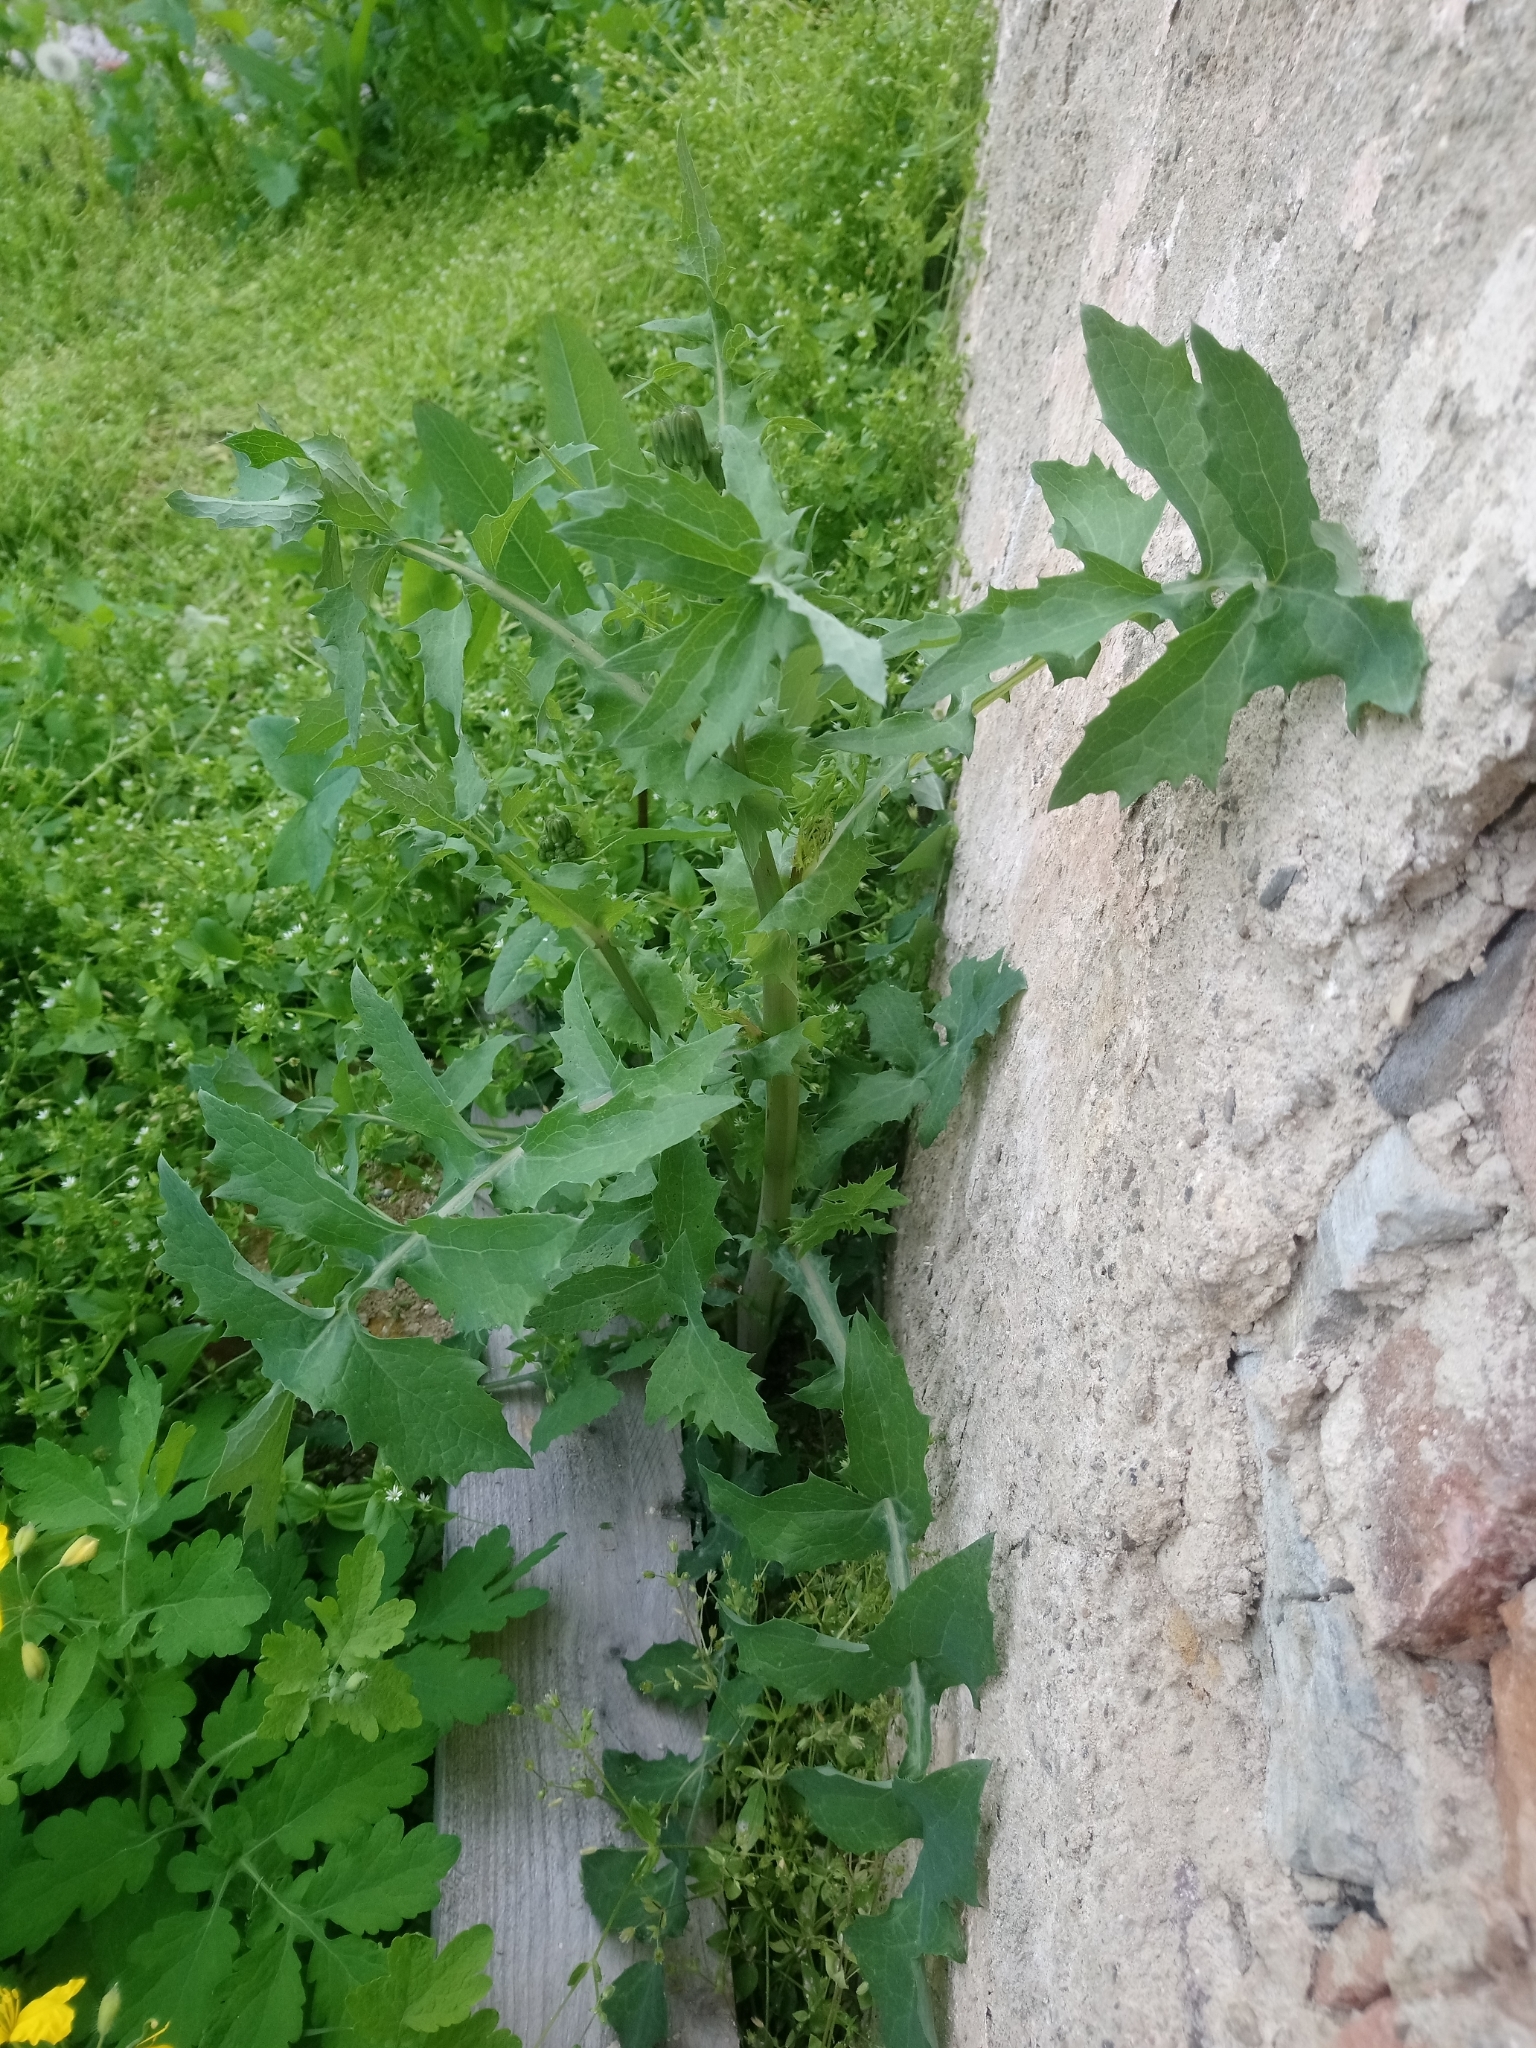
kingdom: Plantae
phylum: Tracheophyta
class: Magnoliopsida
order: Asterales
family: Asteraceae
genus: Sonchus
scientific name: Sonchus oleraceus
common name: Common sowthistle
